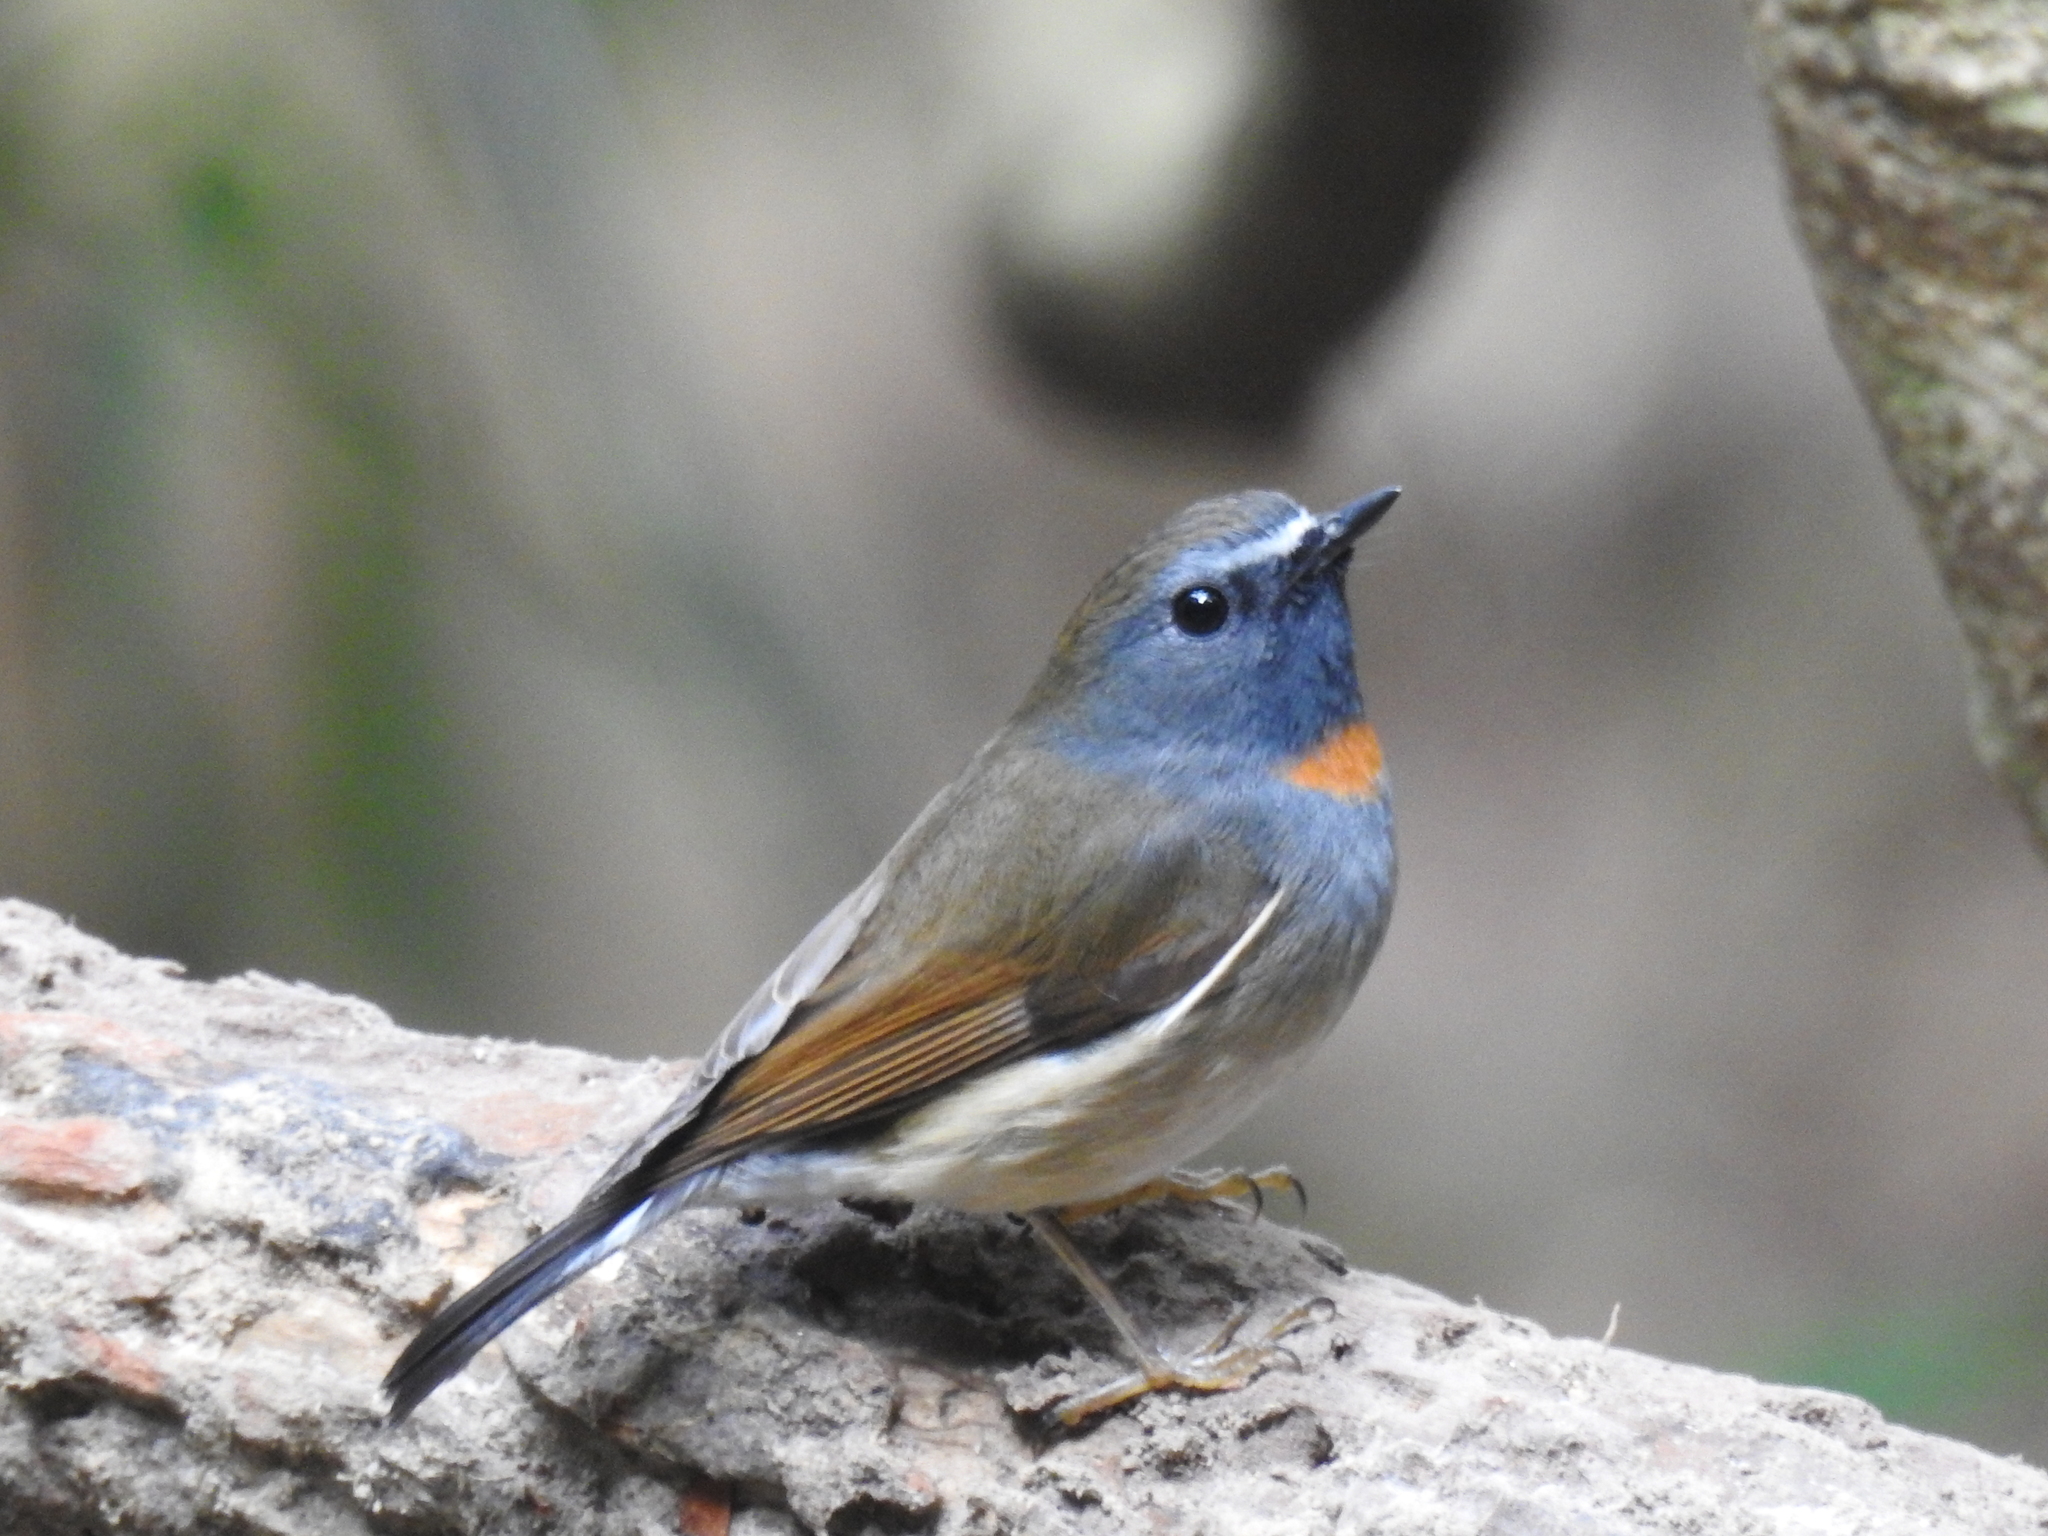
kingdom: Animalia
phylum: Chordata
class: Aves
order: Passeriformes
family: Muscicapidae
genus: Ficedula
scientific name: Ficedula strophiata
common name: Rufous-gorgeted flycatcher
